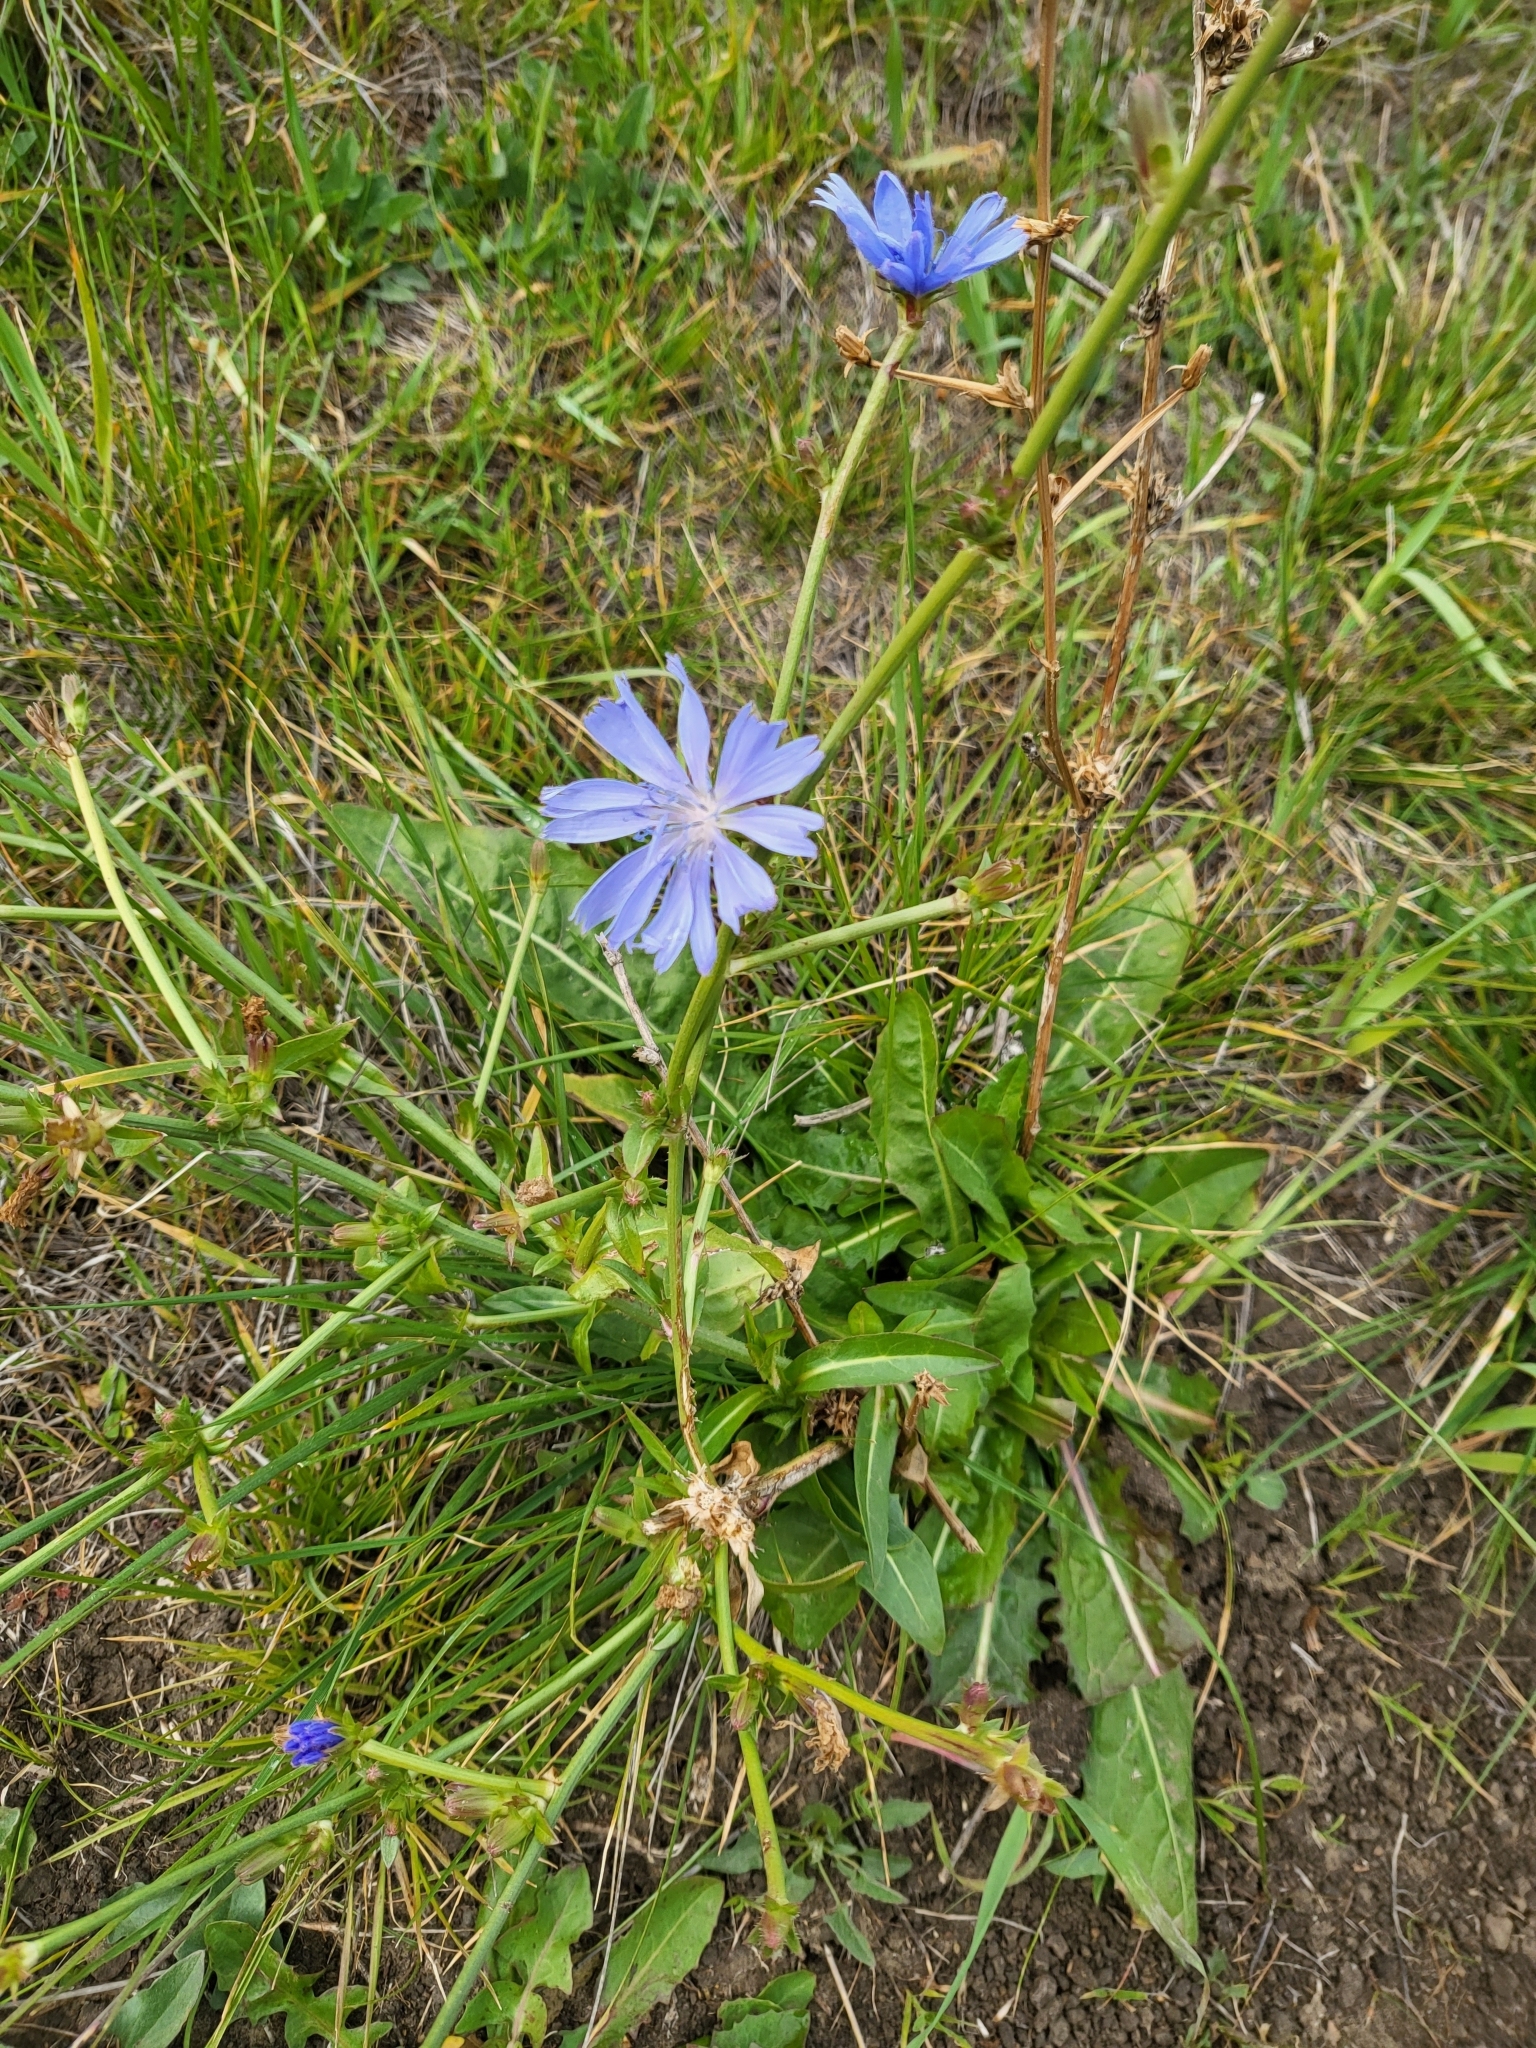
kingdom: Plantae
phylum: Tracheophyta
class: Magnoliopsida
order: Asterales
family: Asteraceae
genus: Cichorium
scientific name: Cichorium intybus
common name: Chicory
